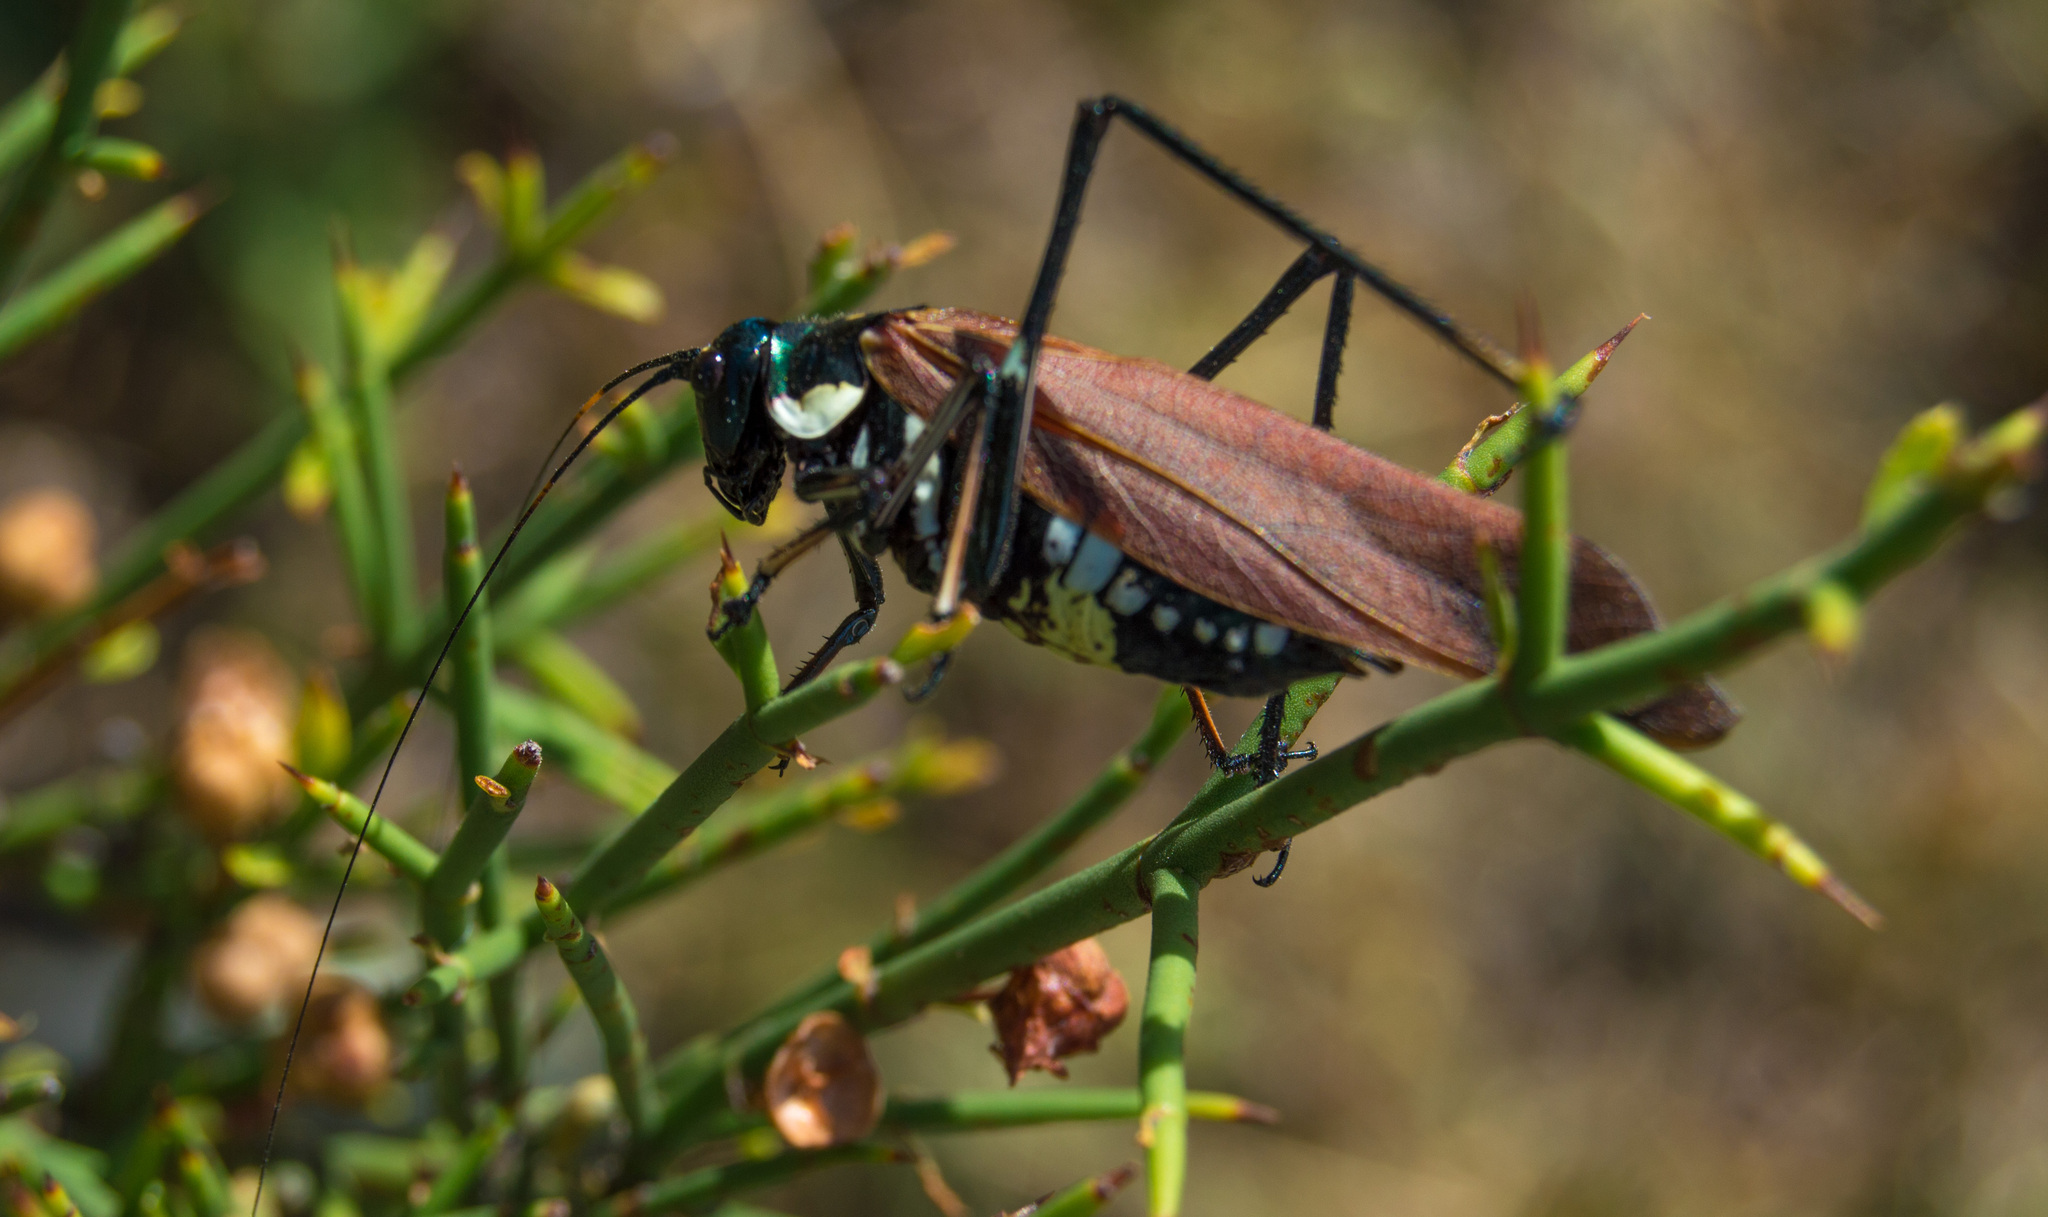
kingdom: Animalia
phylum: Arthropoda
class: Insecta
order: Orthoptera
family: Tettigoniidae
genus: Scaphura
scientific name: Scaphura elegans
